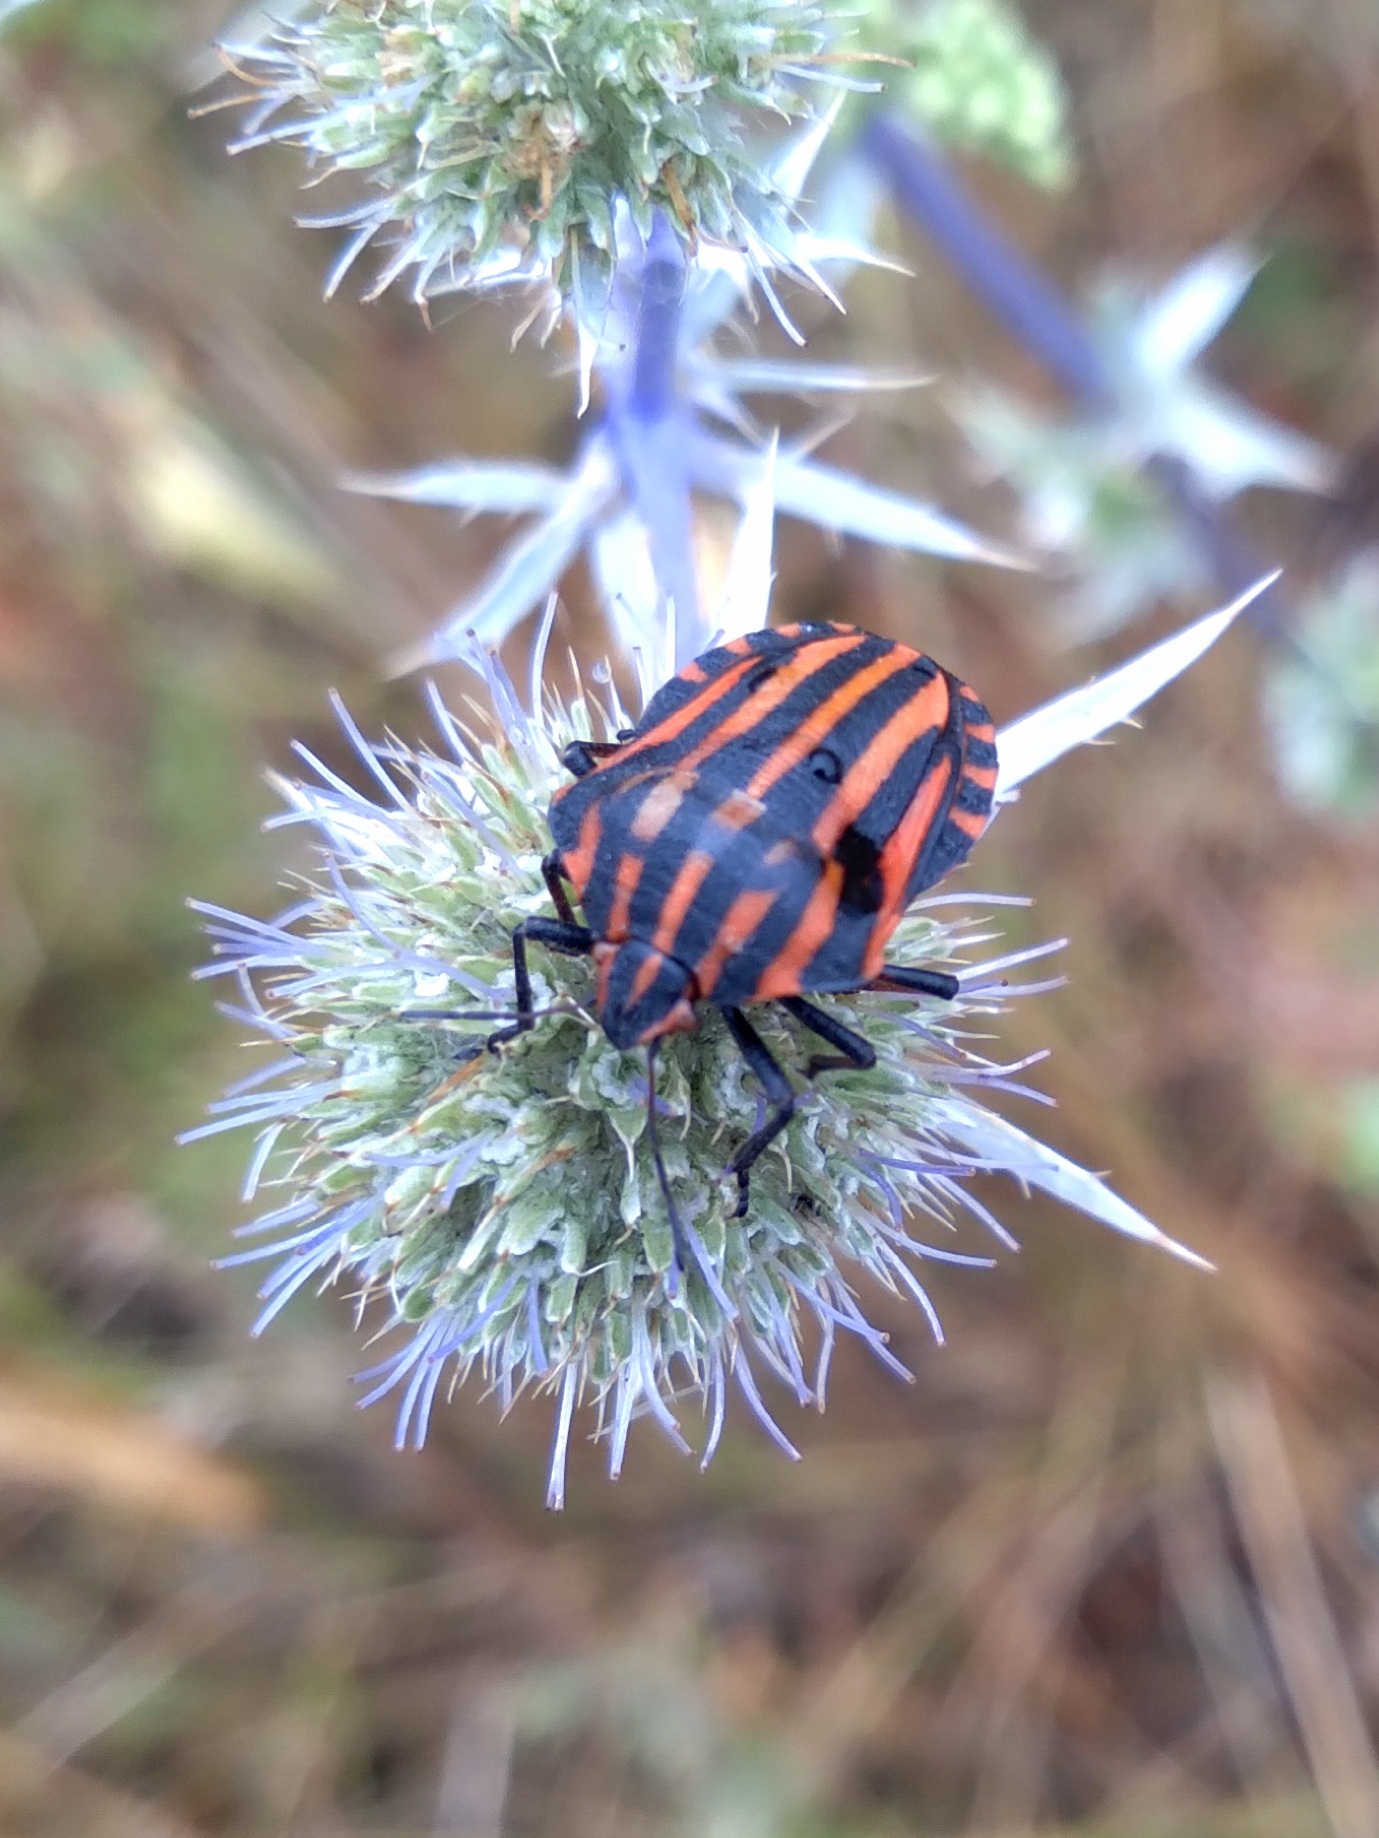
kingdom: Animalia
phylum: Arthropoda
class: Insecta
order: Hemiptera
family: Pentatomidae
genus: Graphosoma
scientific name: Graphosoma italicum
